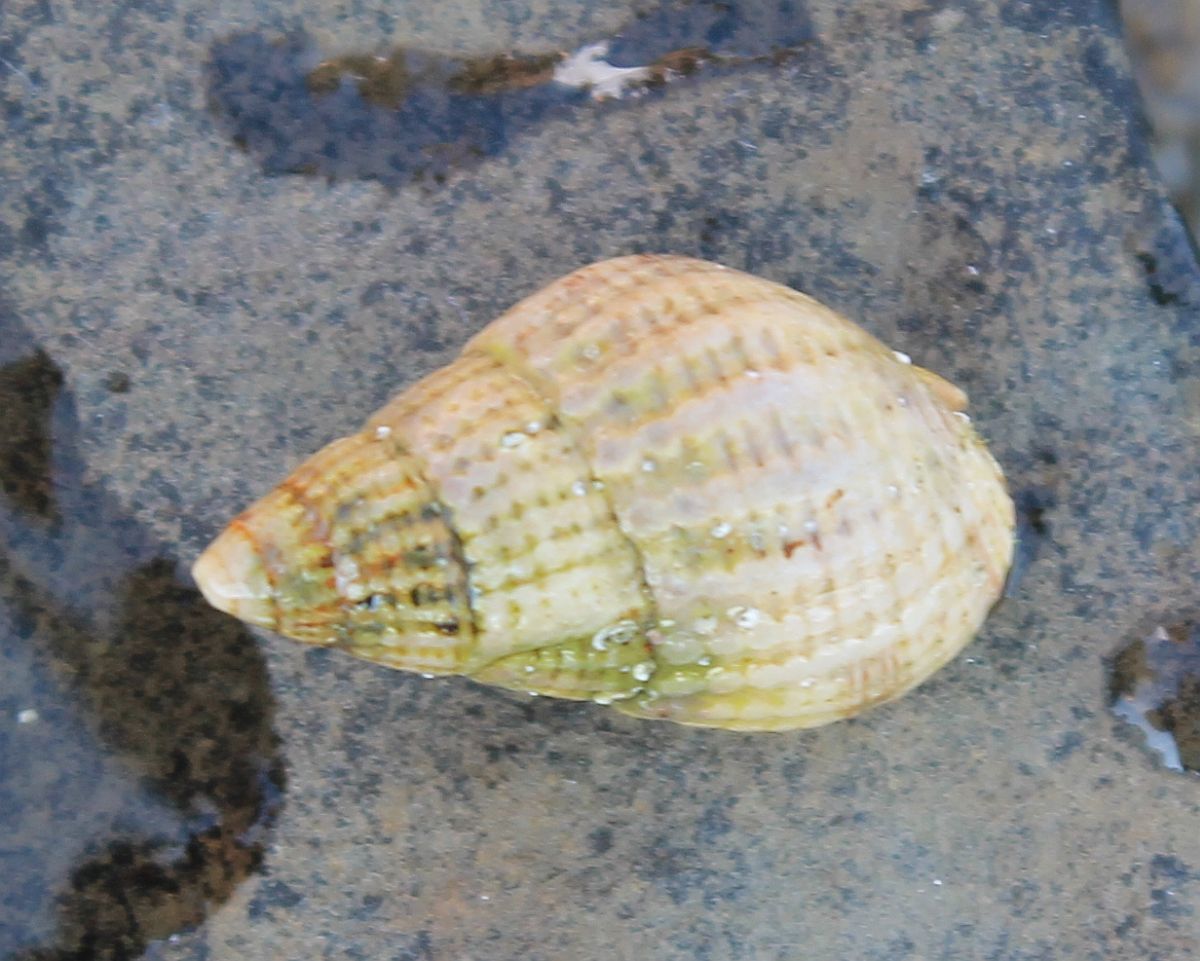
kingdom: Animalia
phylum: Mollusca
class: Gastropoda
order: Neogastropoda
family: Nassariidae
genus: Tritia
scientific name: Tritia reticulata
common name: Netted dog whelk
